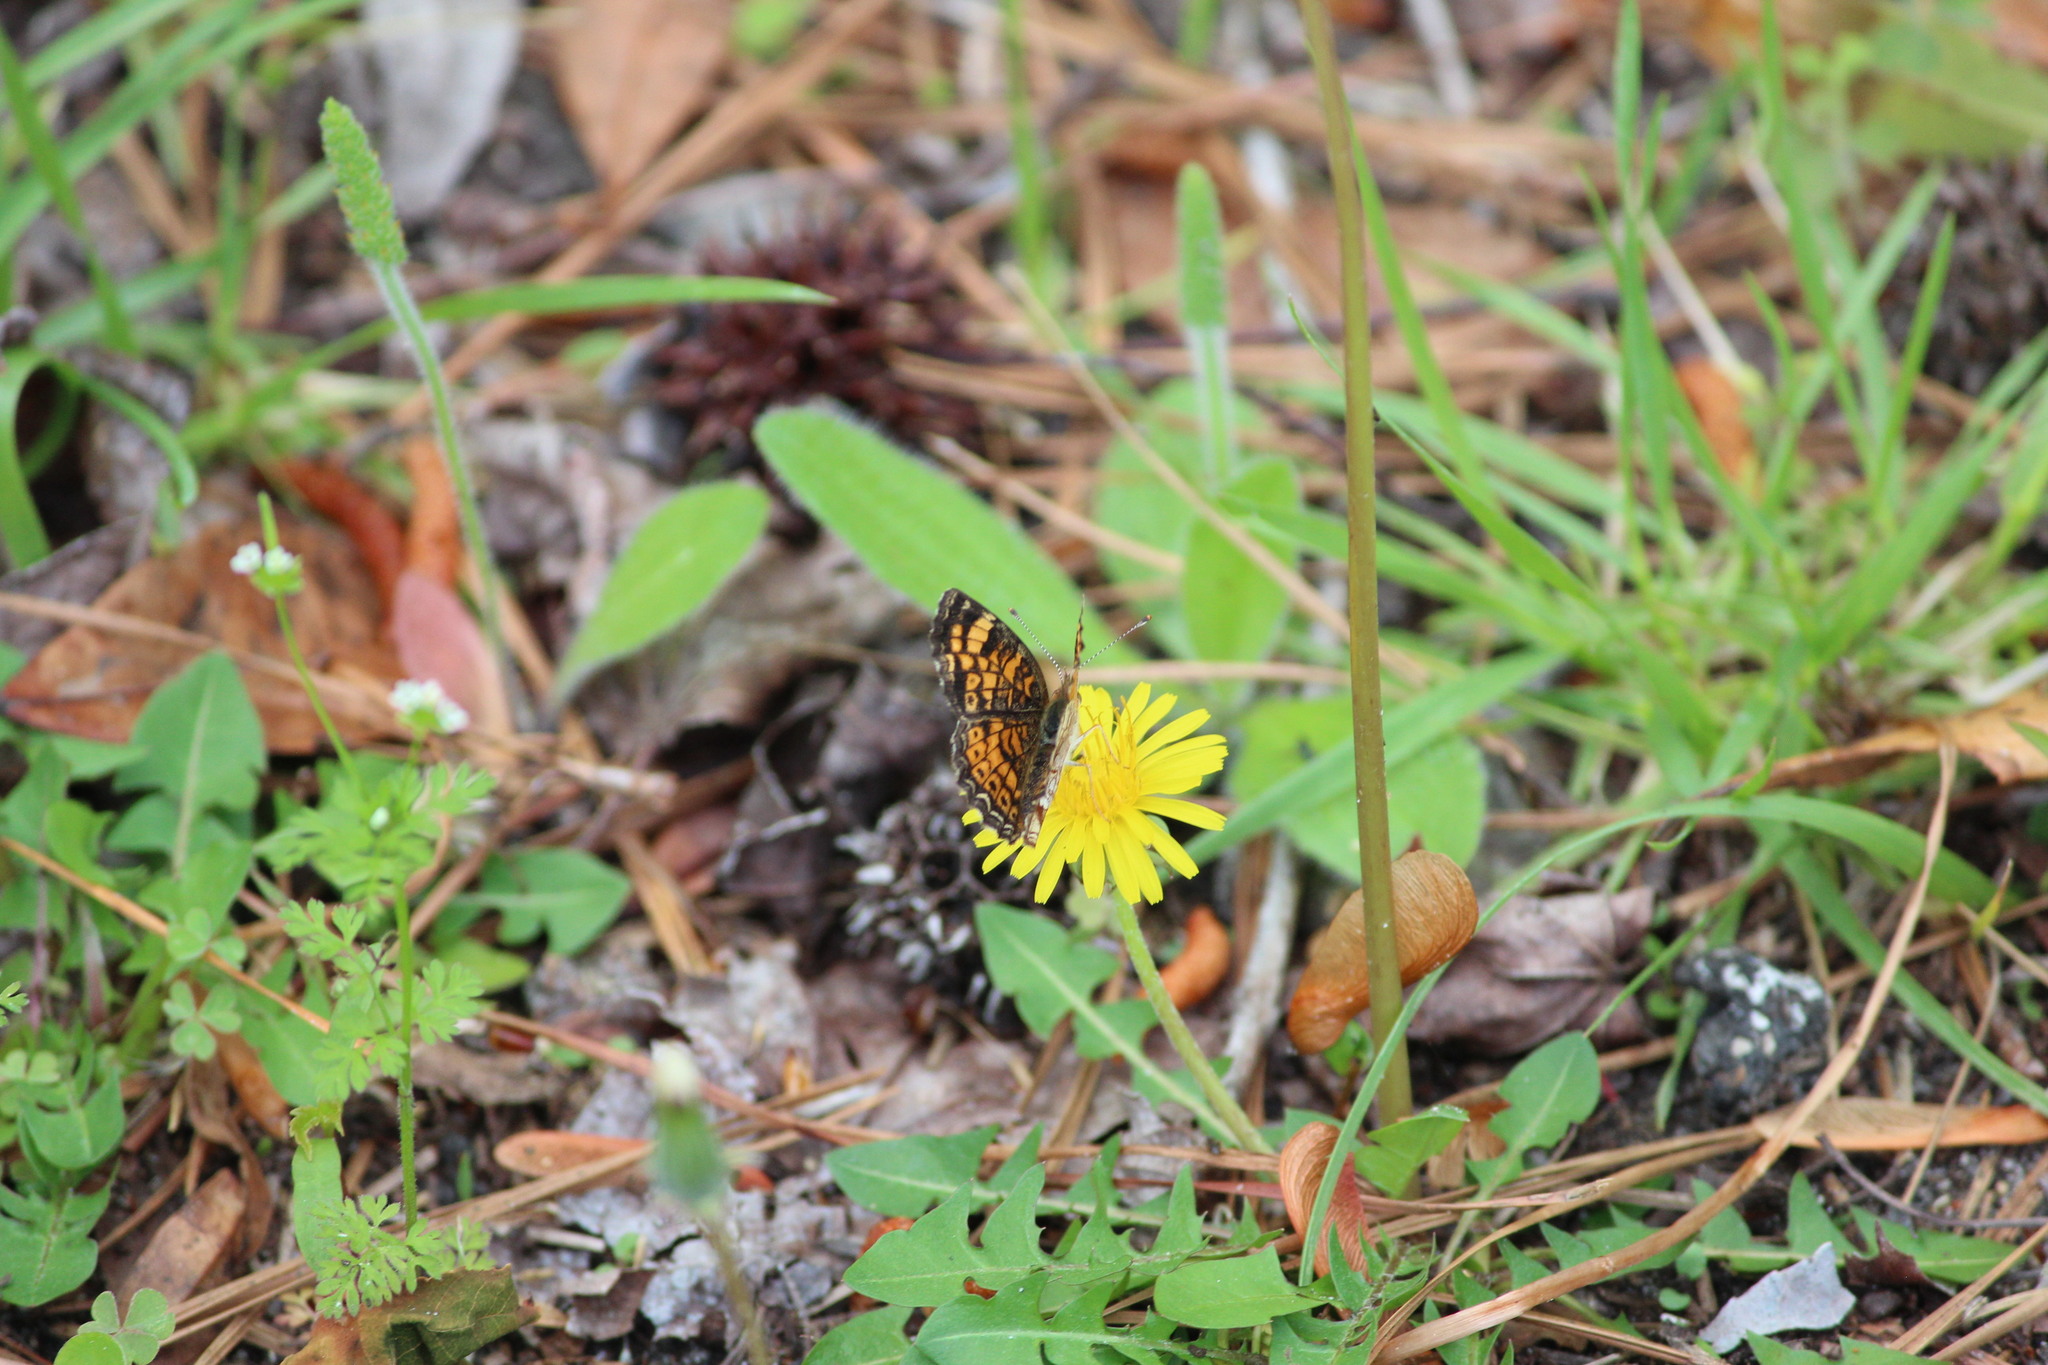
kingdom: Animalia
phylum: Arthropoda
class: Insecta
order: Lepidoptera
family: Nymphalidae
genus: Phyciodes
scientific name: Phyciodes tharos
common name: Pearl crescent
